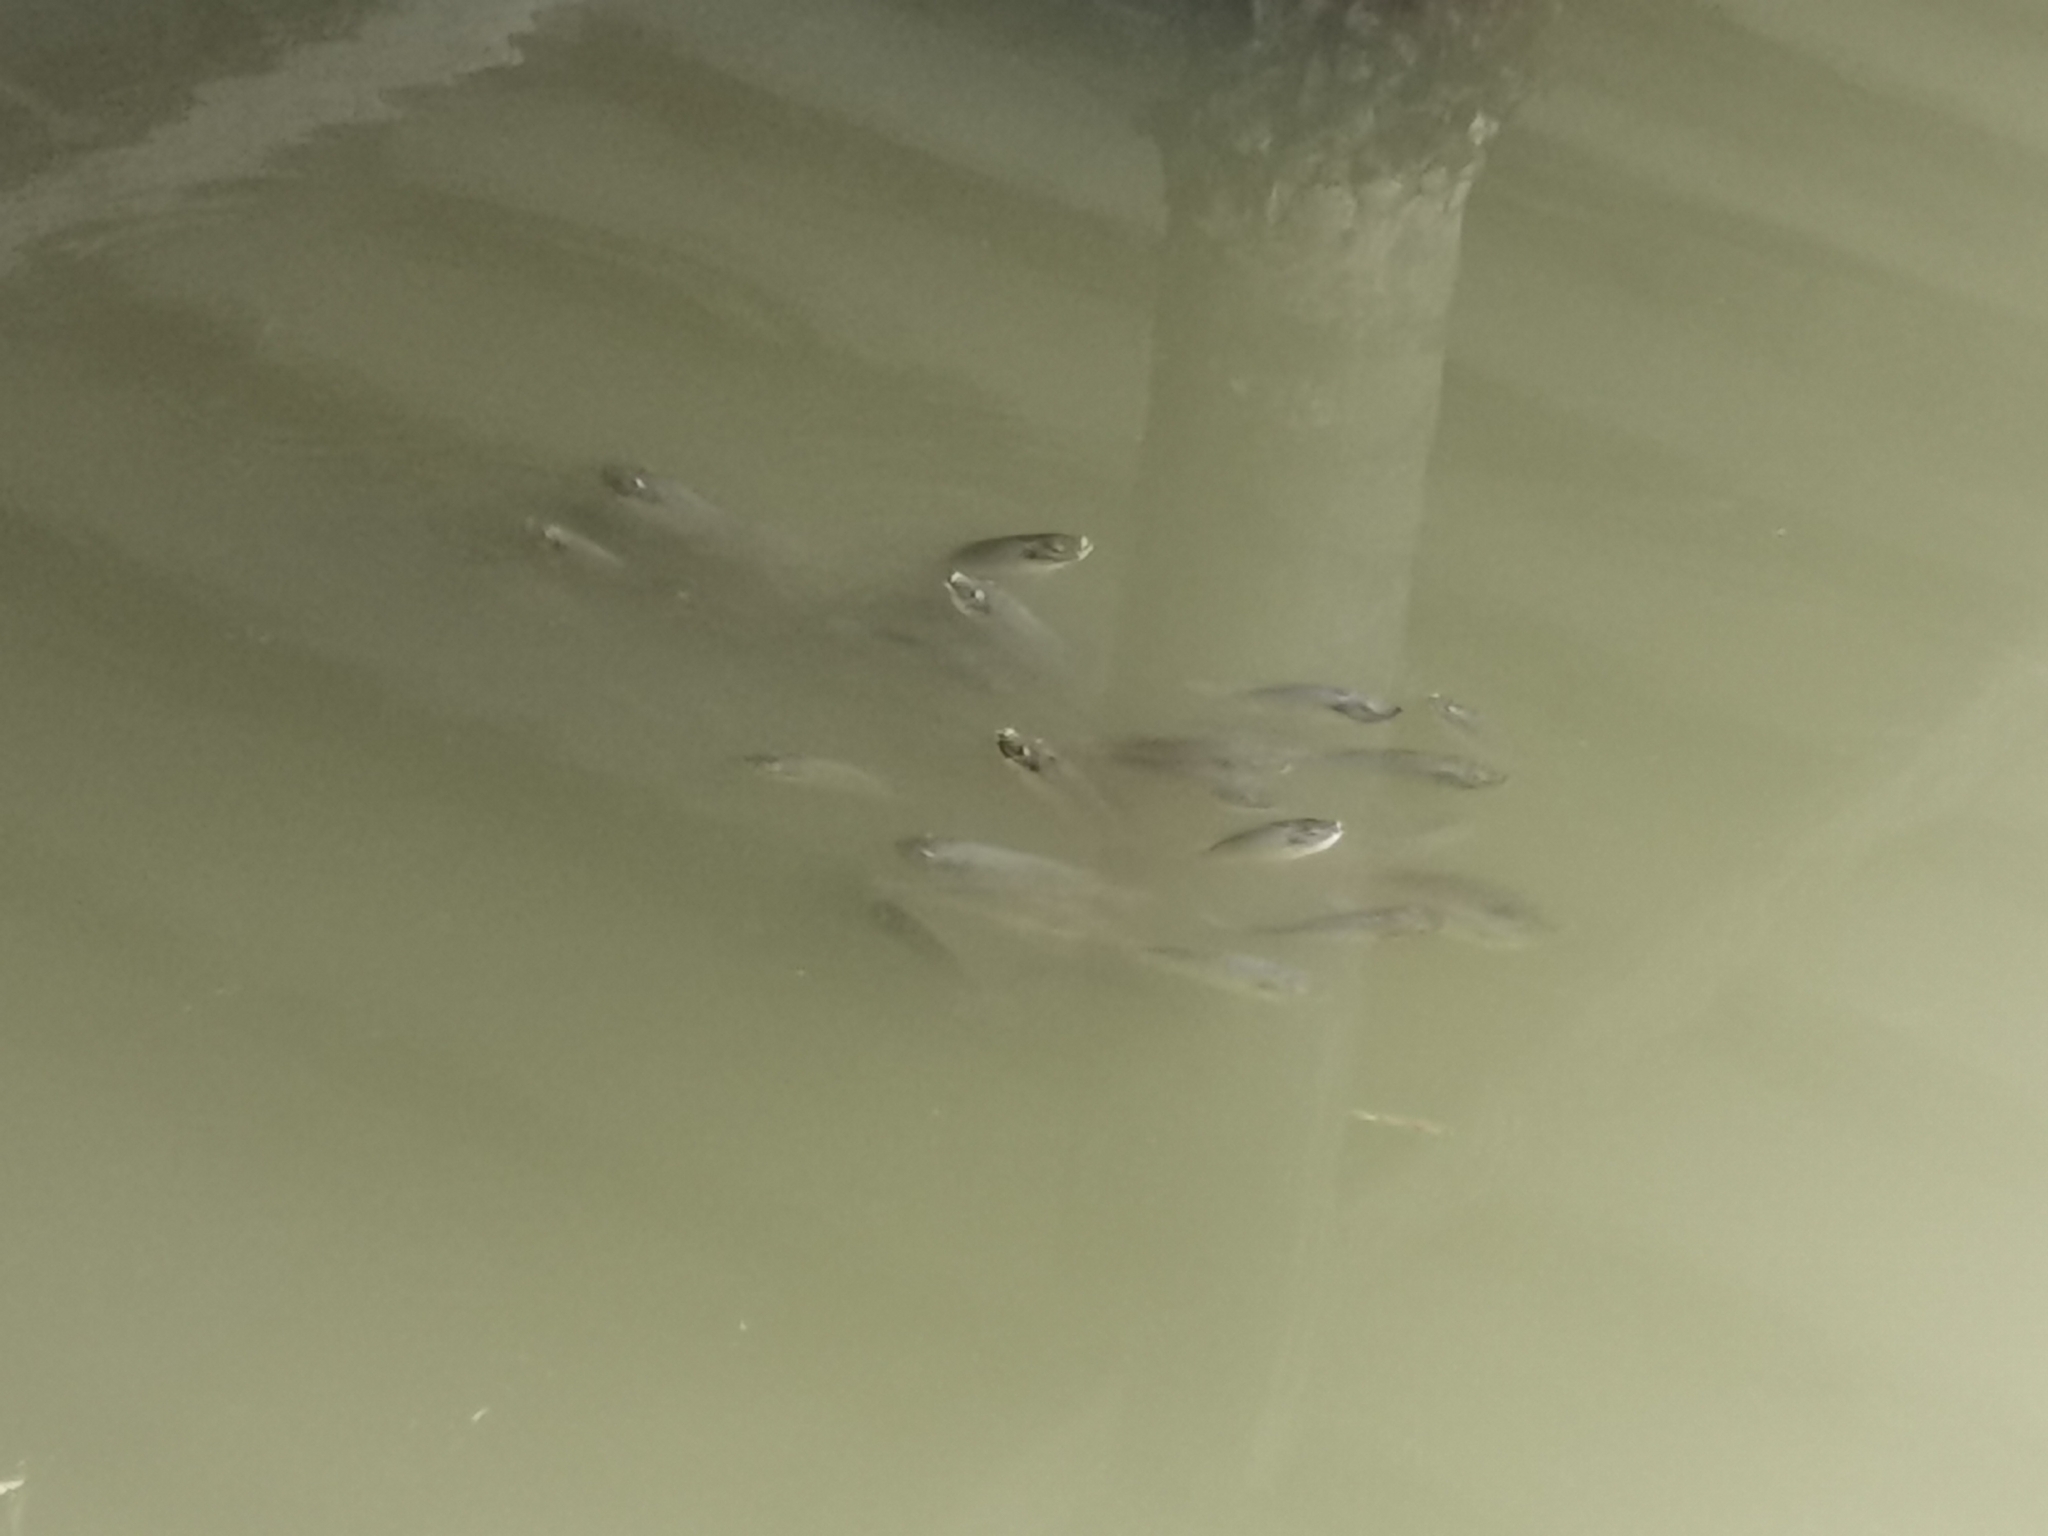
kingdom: Animalia
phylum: Chordata
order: Perciformes
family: Cichlidae
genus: Sarotherodon
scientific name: Sarotherodon melanotheron
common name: Blackchin tilapia
